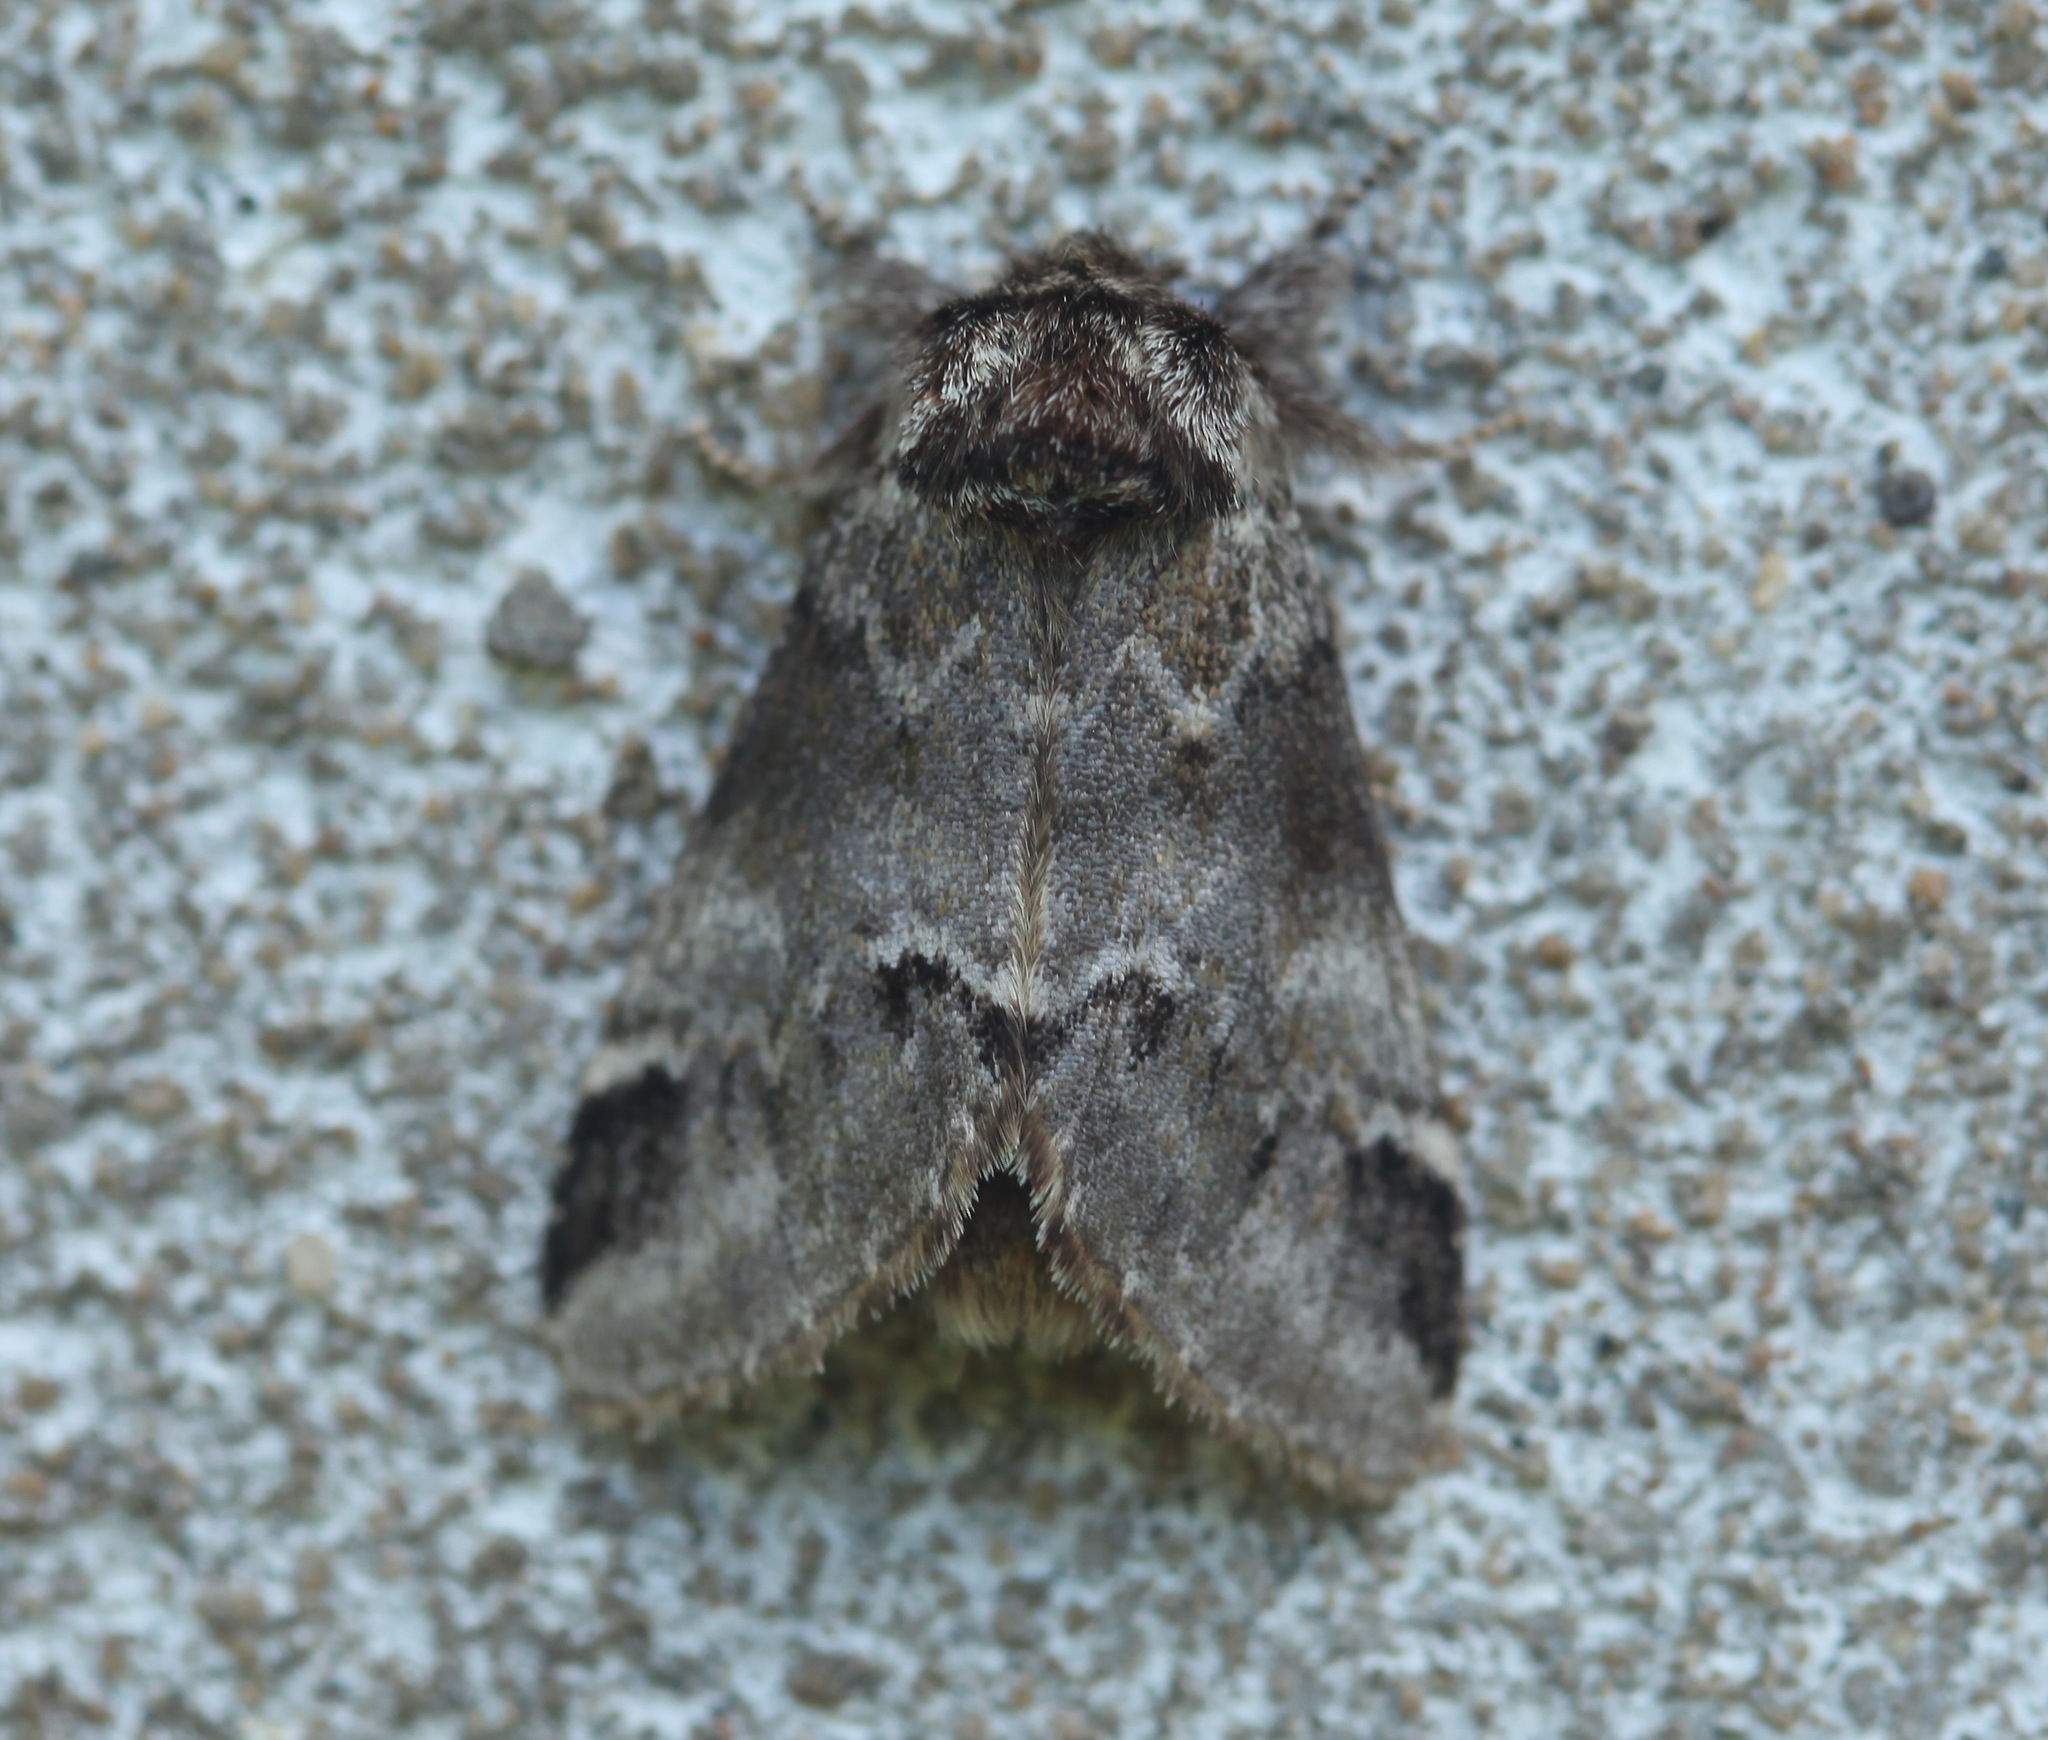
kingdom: Animalia
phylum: Arthropoda
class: Insecta
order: Lepidoptera
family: Notodontidae
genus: Drymonia
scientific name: Drymonia dodonides
